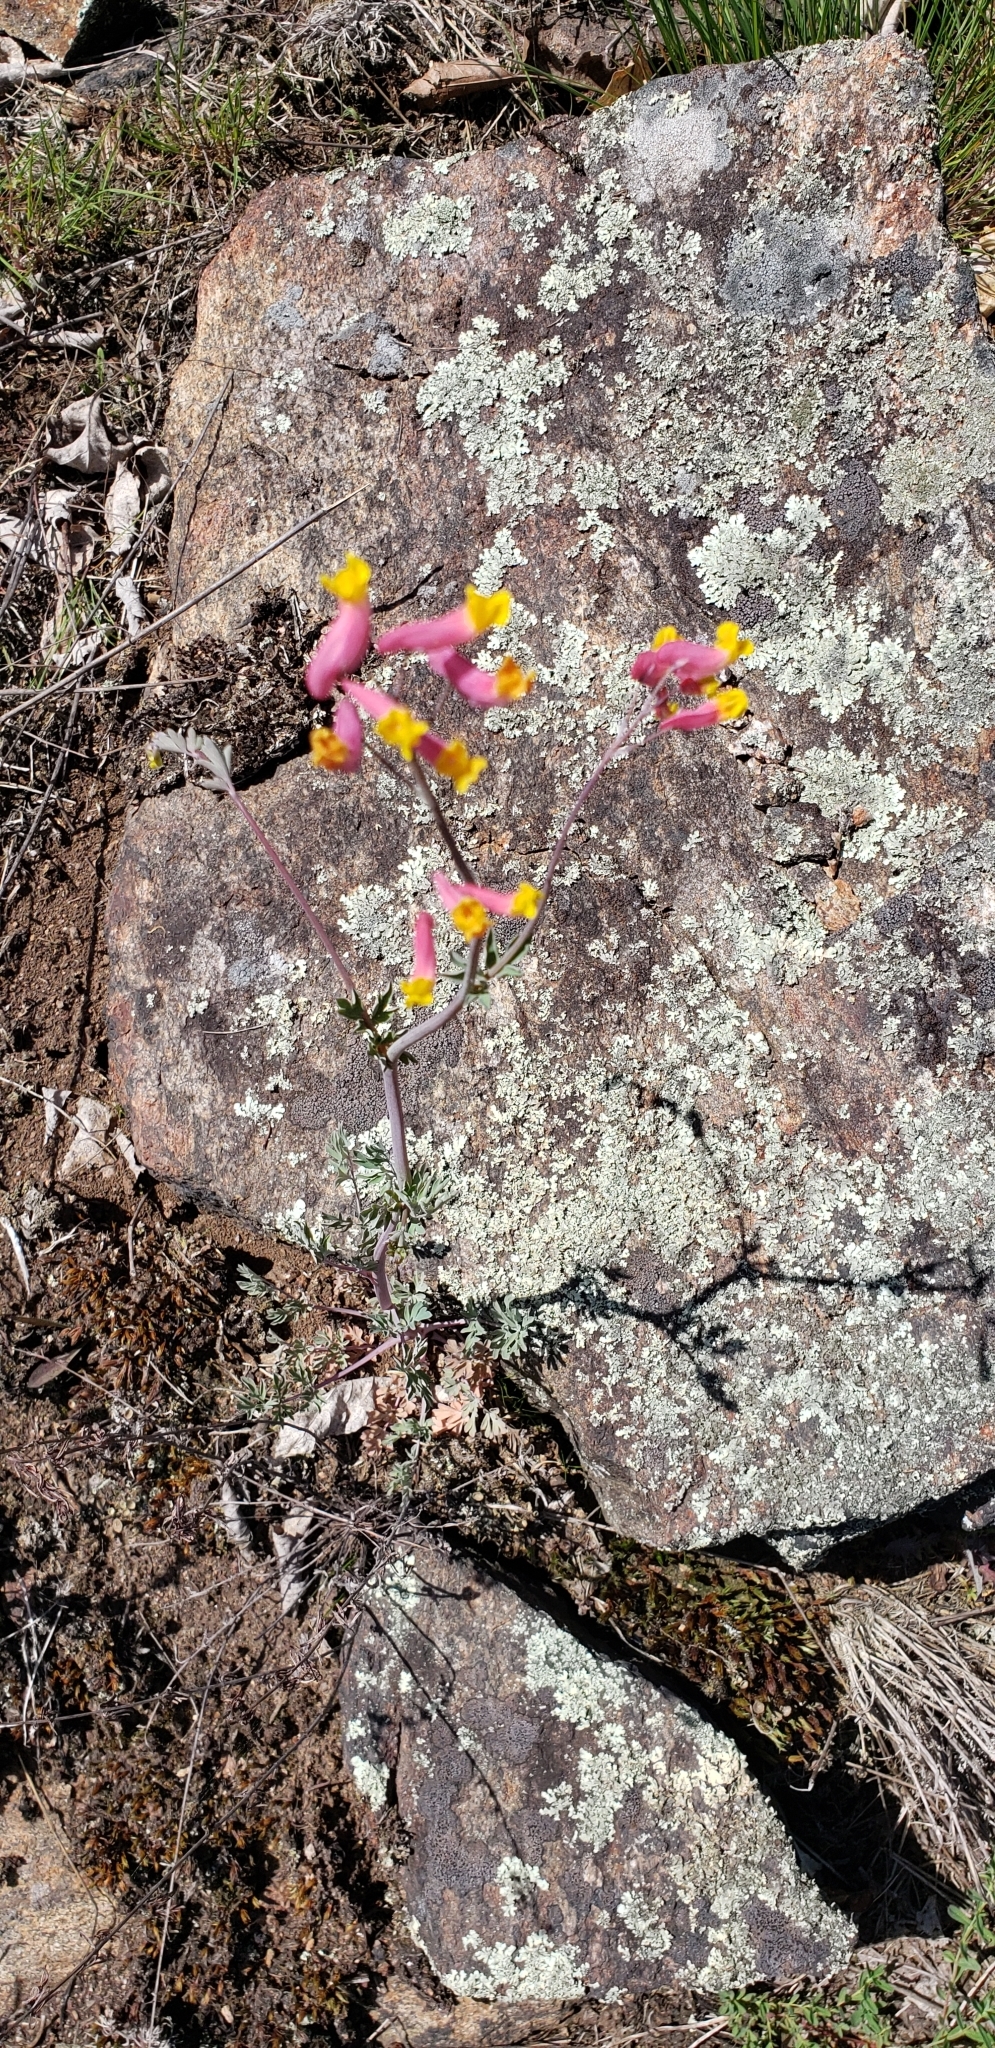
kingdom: Plantae
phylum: Tracheophyta
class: Magnoliopsida
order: Ranunculales
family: Papaveraceae
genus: Capnoides
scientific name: Capnoides sempervirens
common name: Rock harlequin
